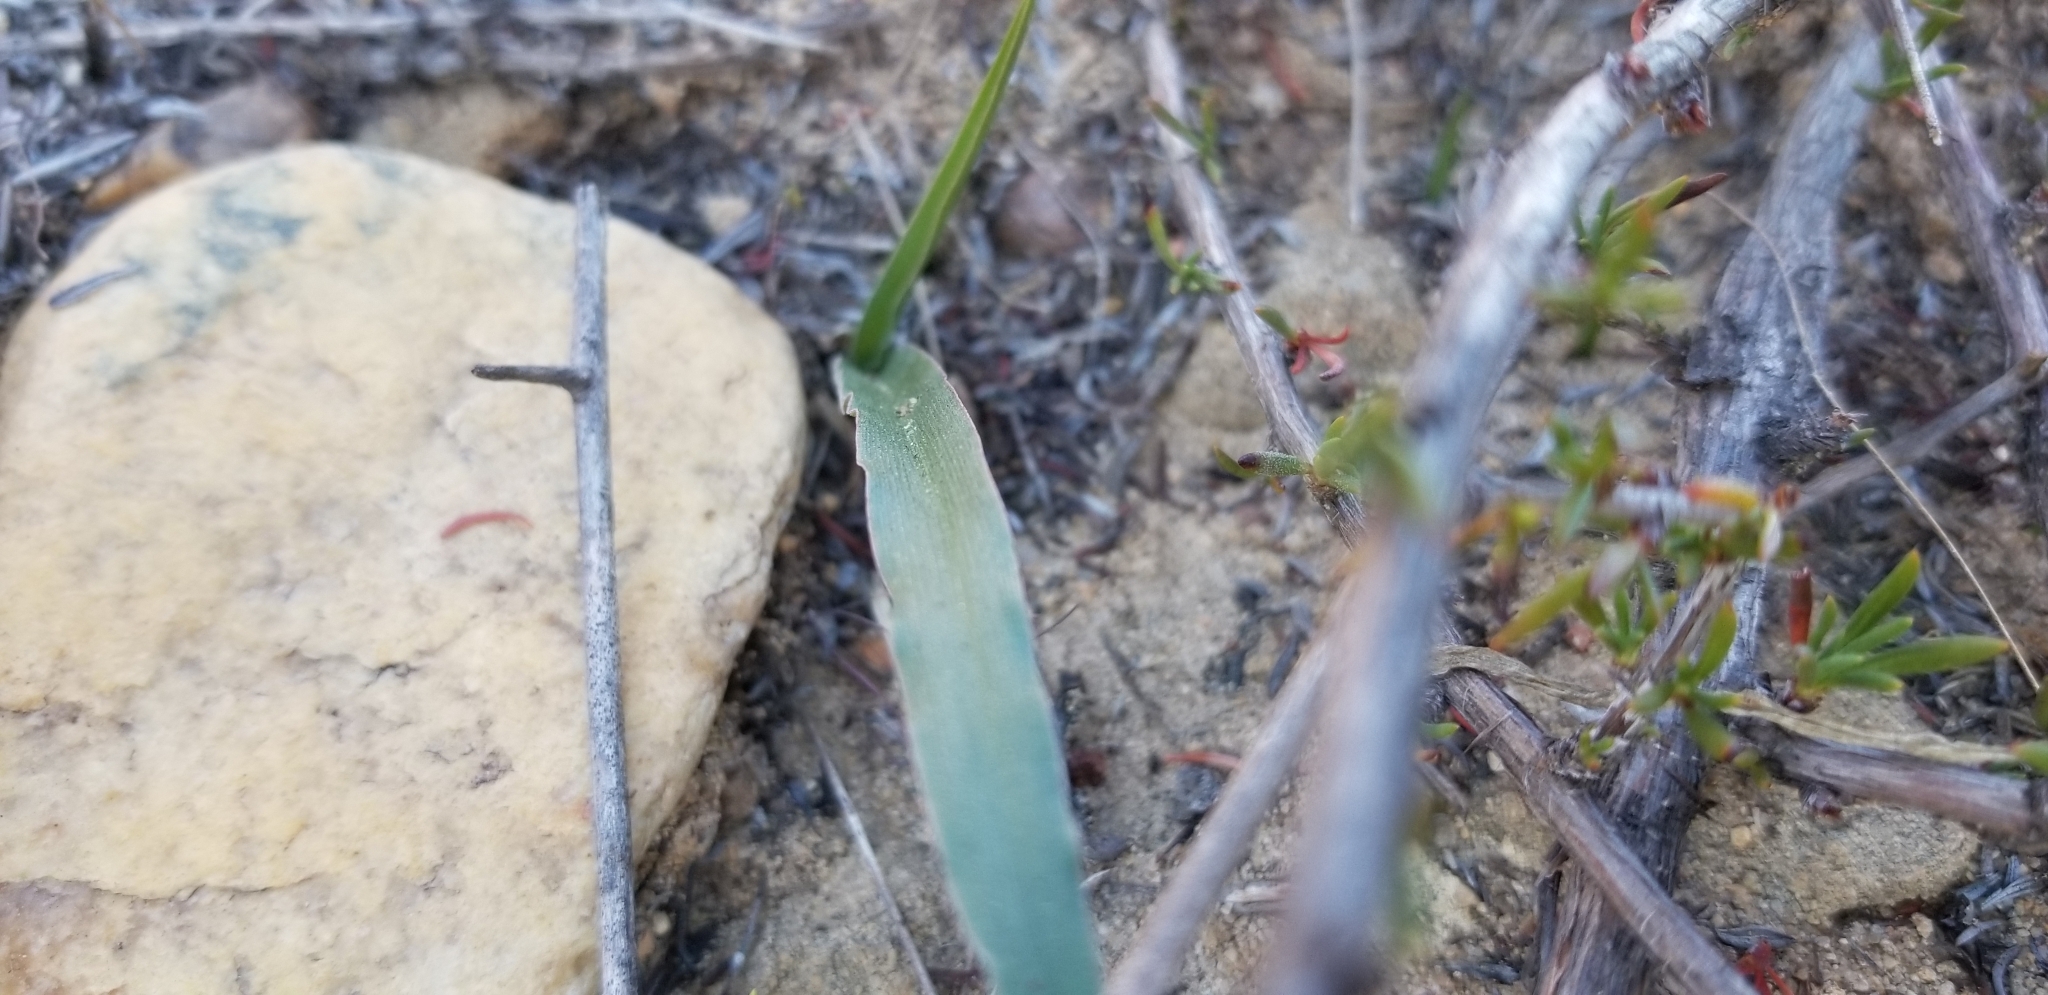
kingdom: Plantae
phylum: Tracheophyta
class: Liliopsida
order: Asparagales
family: Asparagaceae
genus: Hooveria
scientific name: Hooveria parviflora
